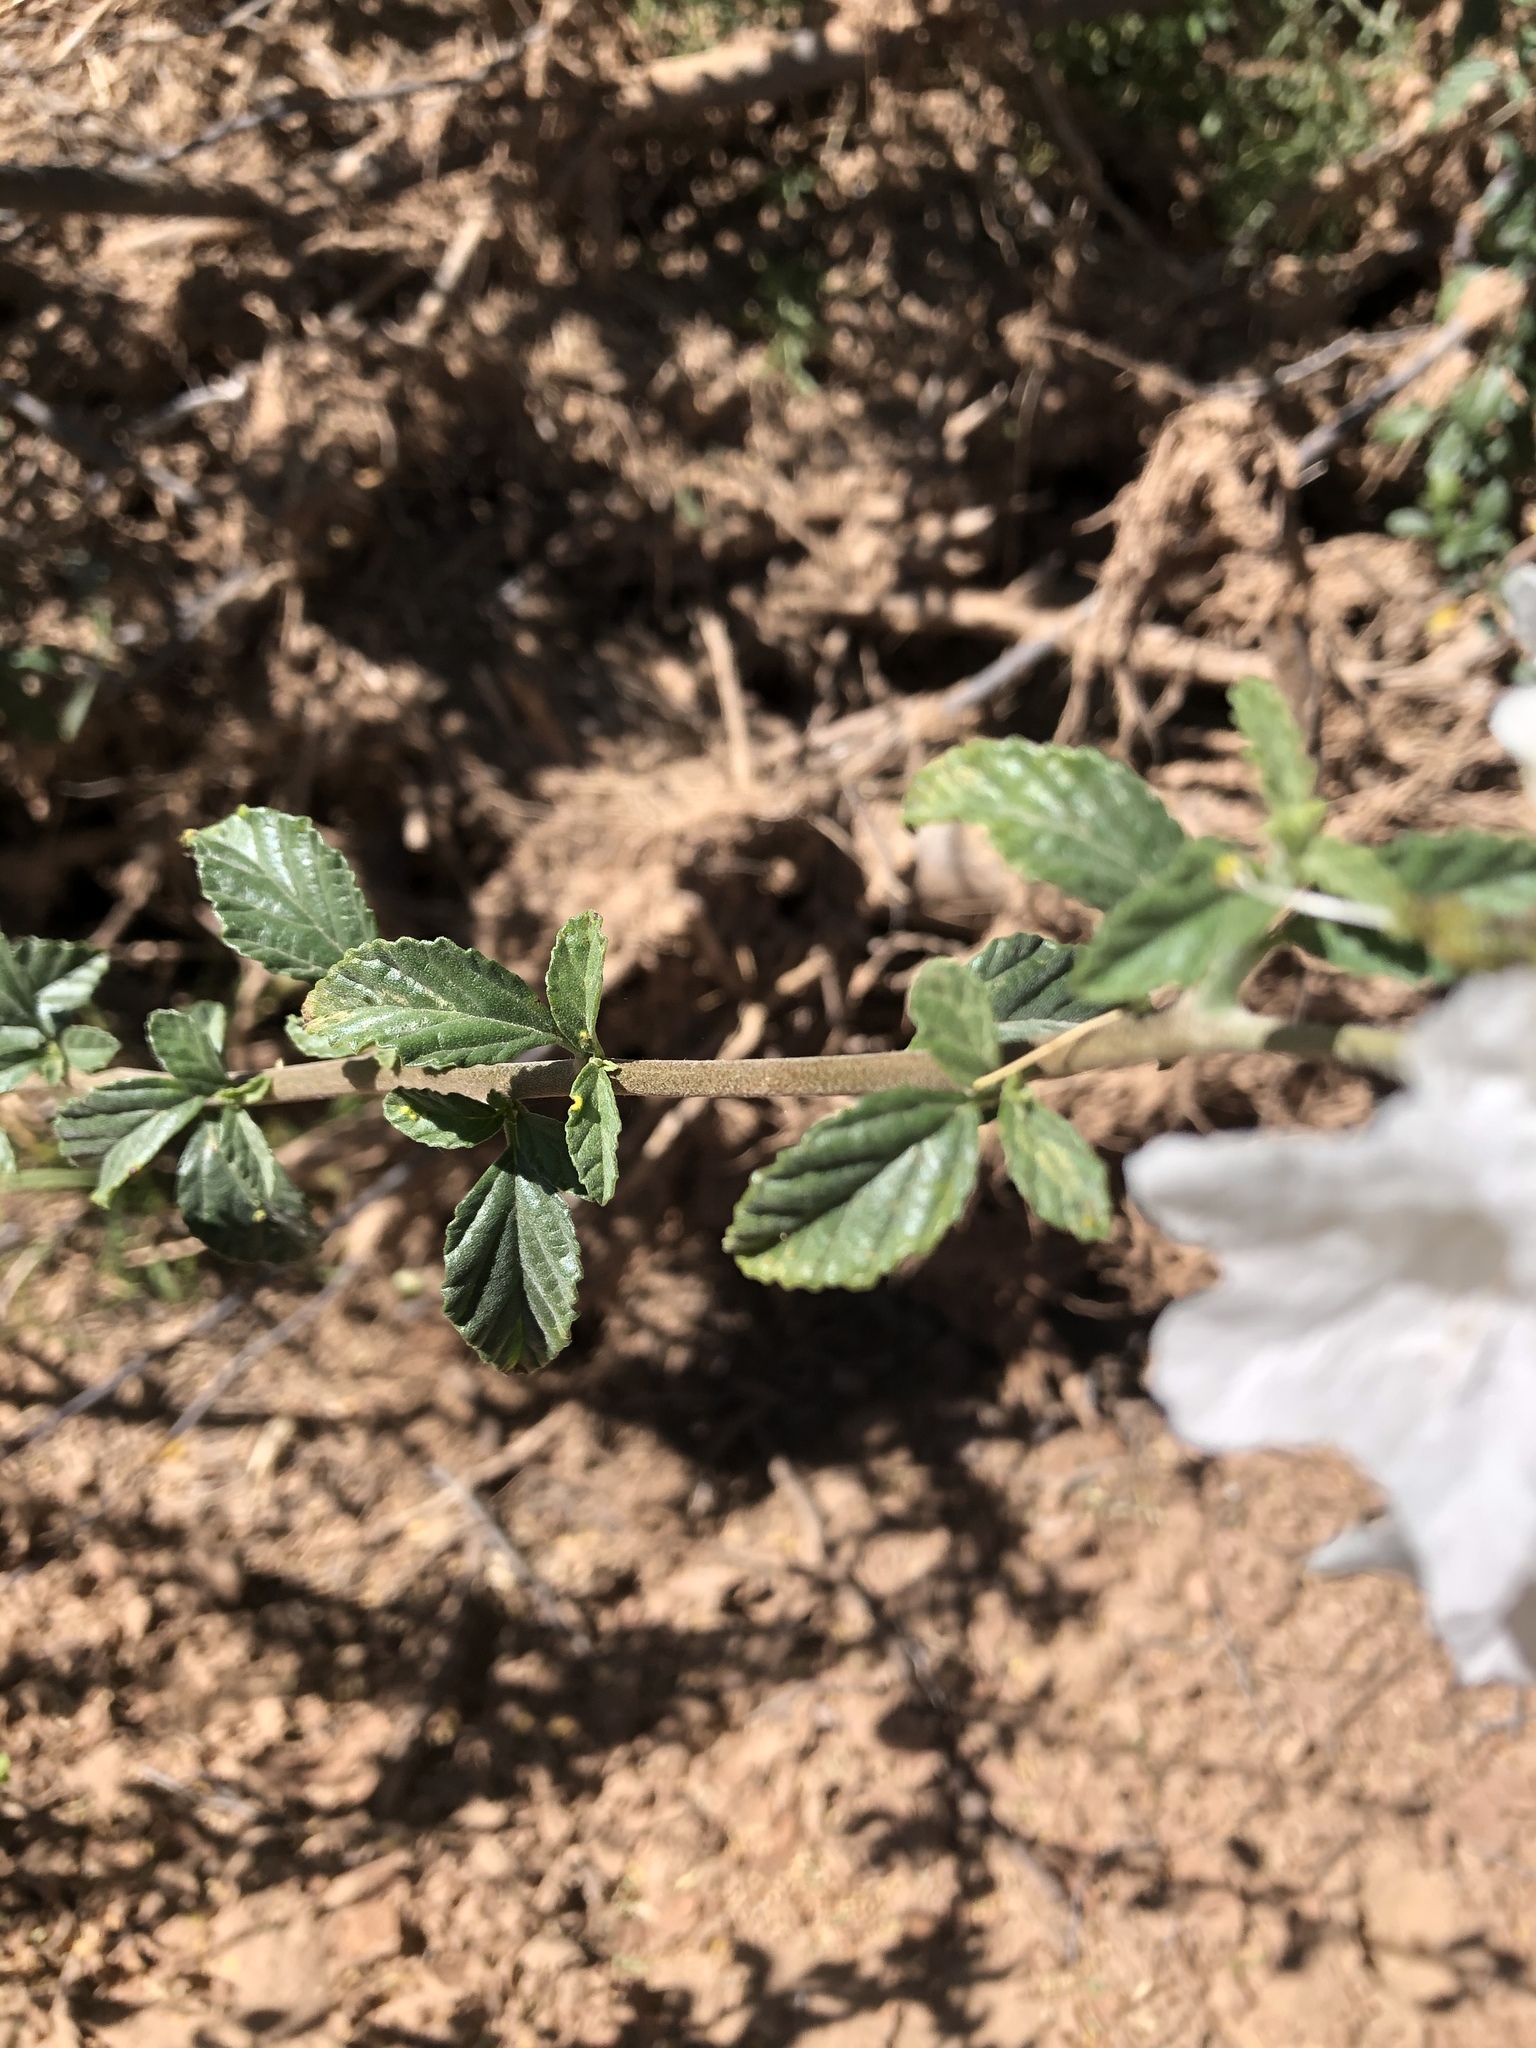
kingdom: Plantae
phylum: Tracheophyta
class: Magnoliopsida
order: Boraginales
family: Cordiaceae
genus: Cordia
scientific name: Cordia parvifolia
